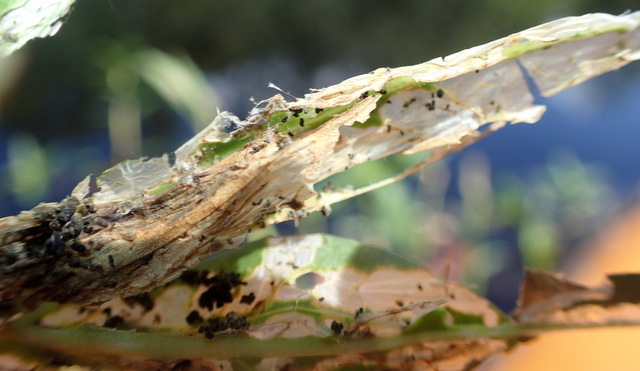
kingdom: Animalia
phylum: Arthropoda
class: Insecta
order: Coleoptera
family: Chrysomelidae
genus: Agasicles
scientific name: Agasicles hygrophila
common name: Alligatorweed flea beetle
